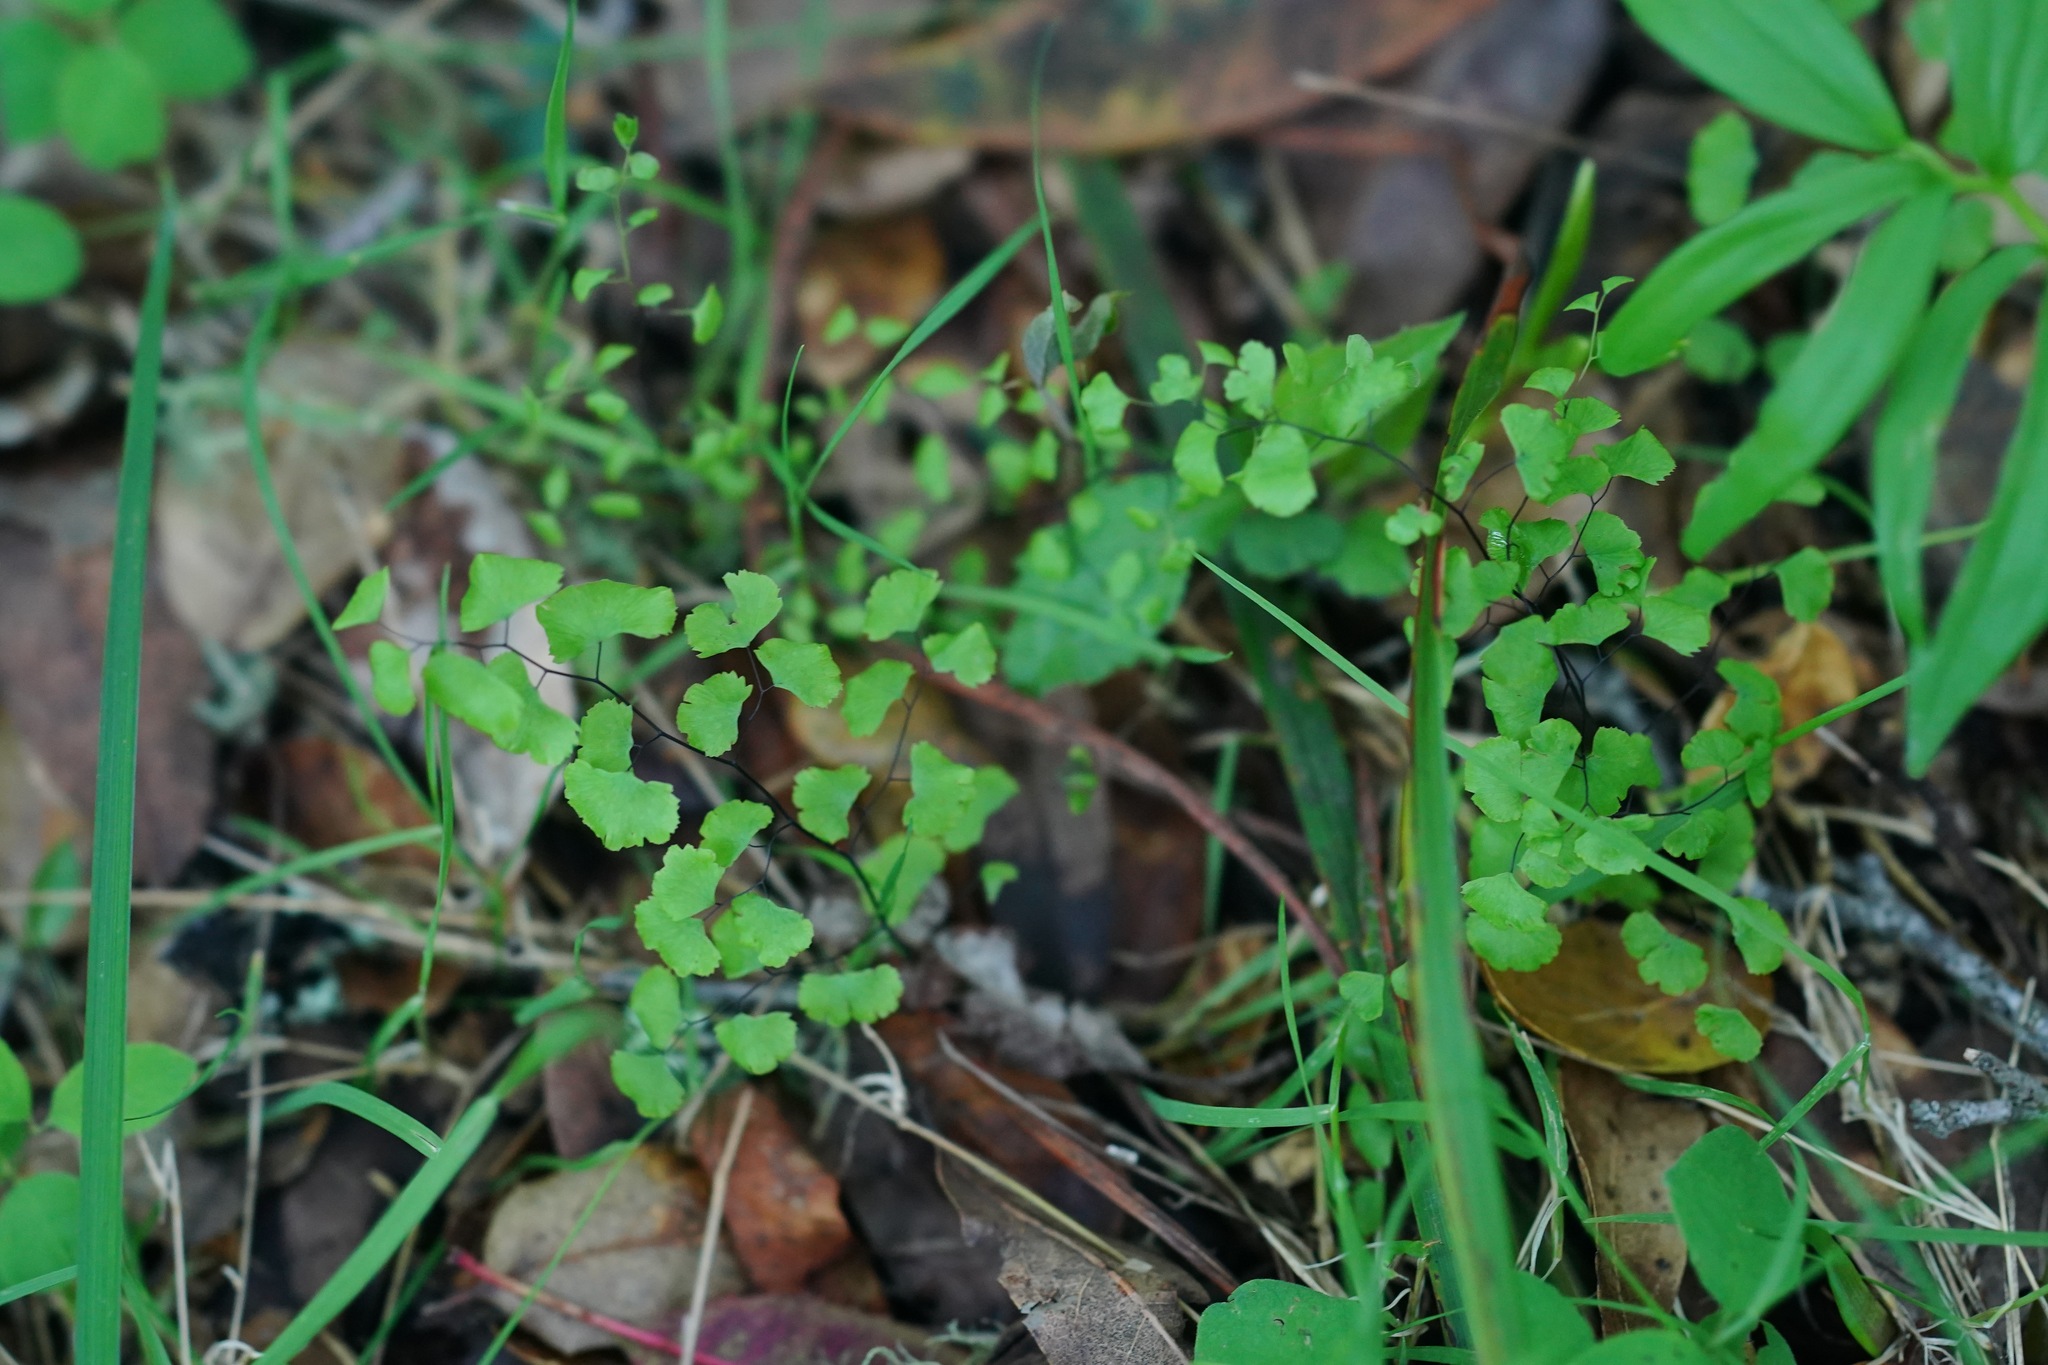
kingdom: Plantae
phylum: Tracheophyta
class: Polypodiopsida
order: Polypodiales
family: Pteridaceae
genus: Adiantum
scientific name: Adiantum jordanii
